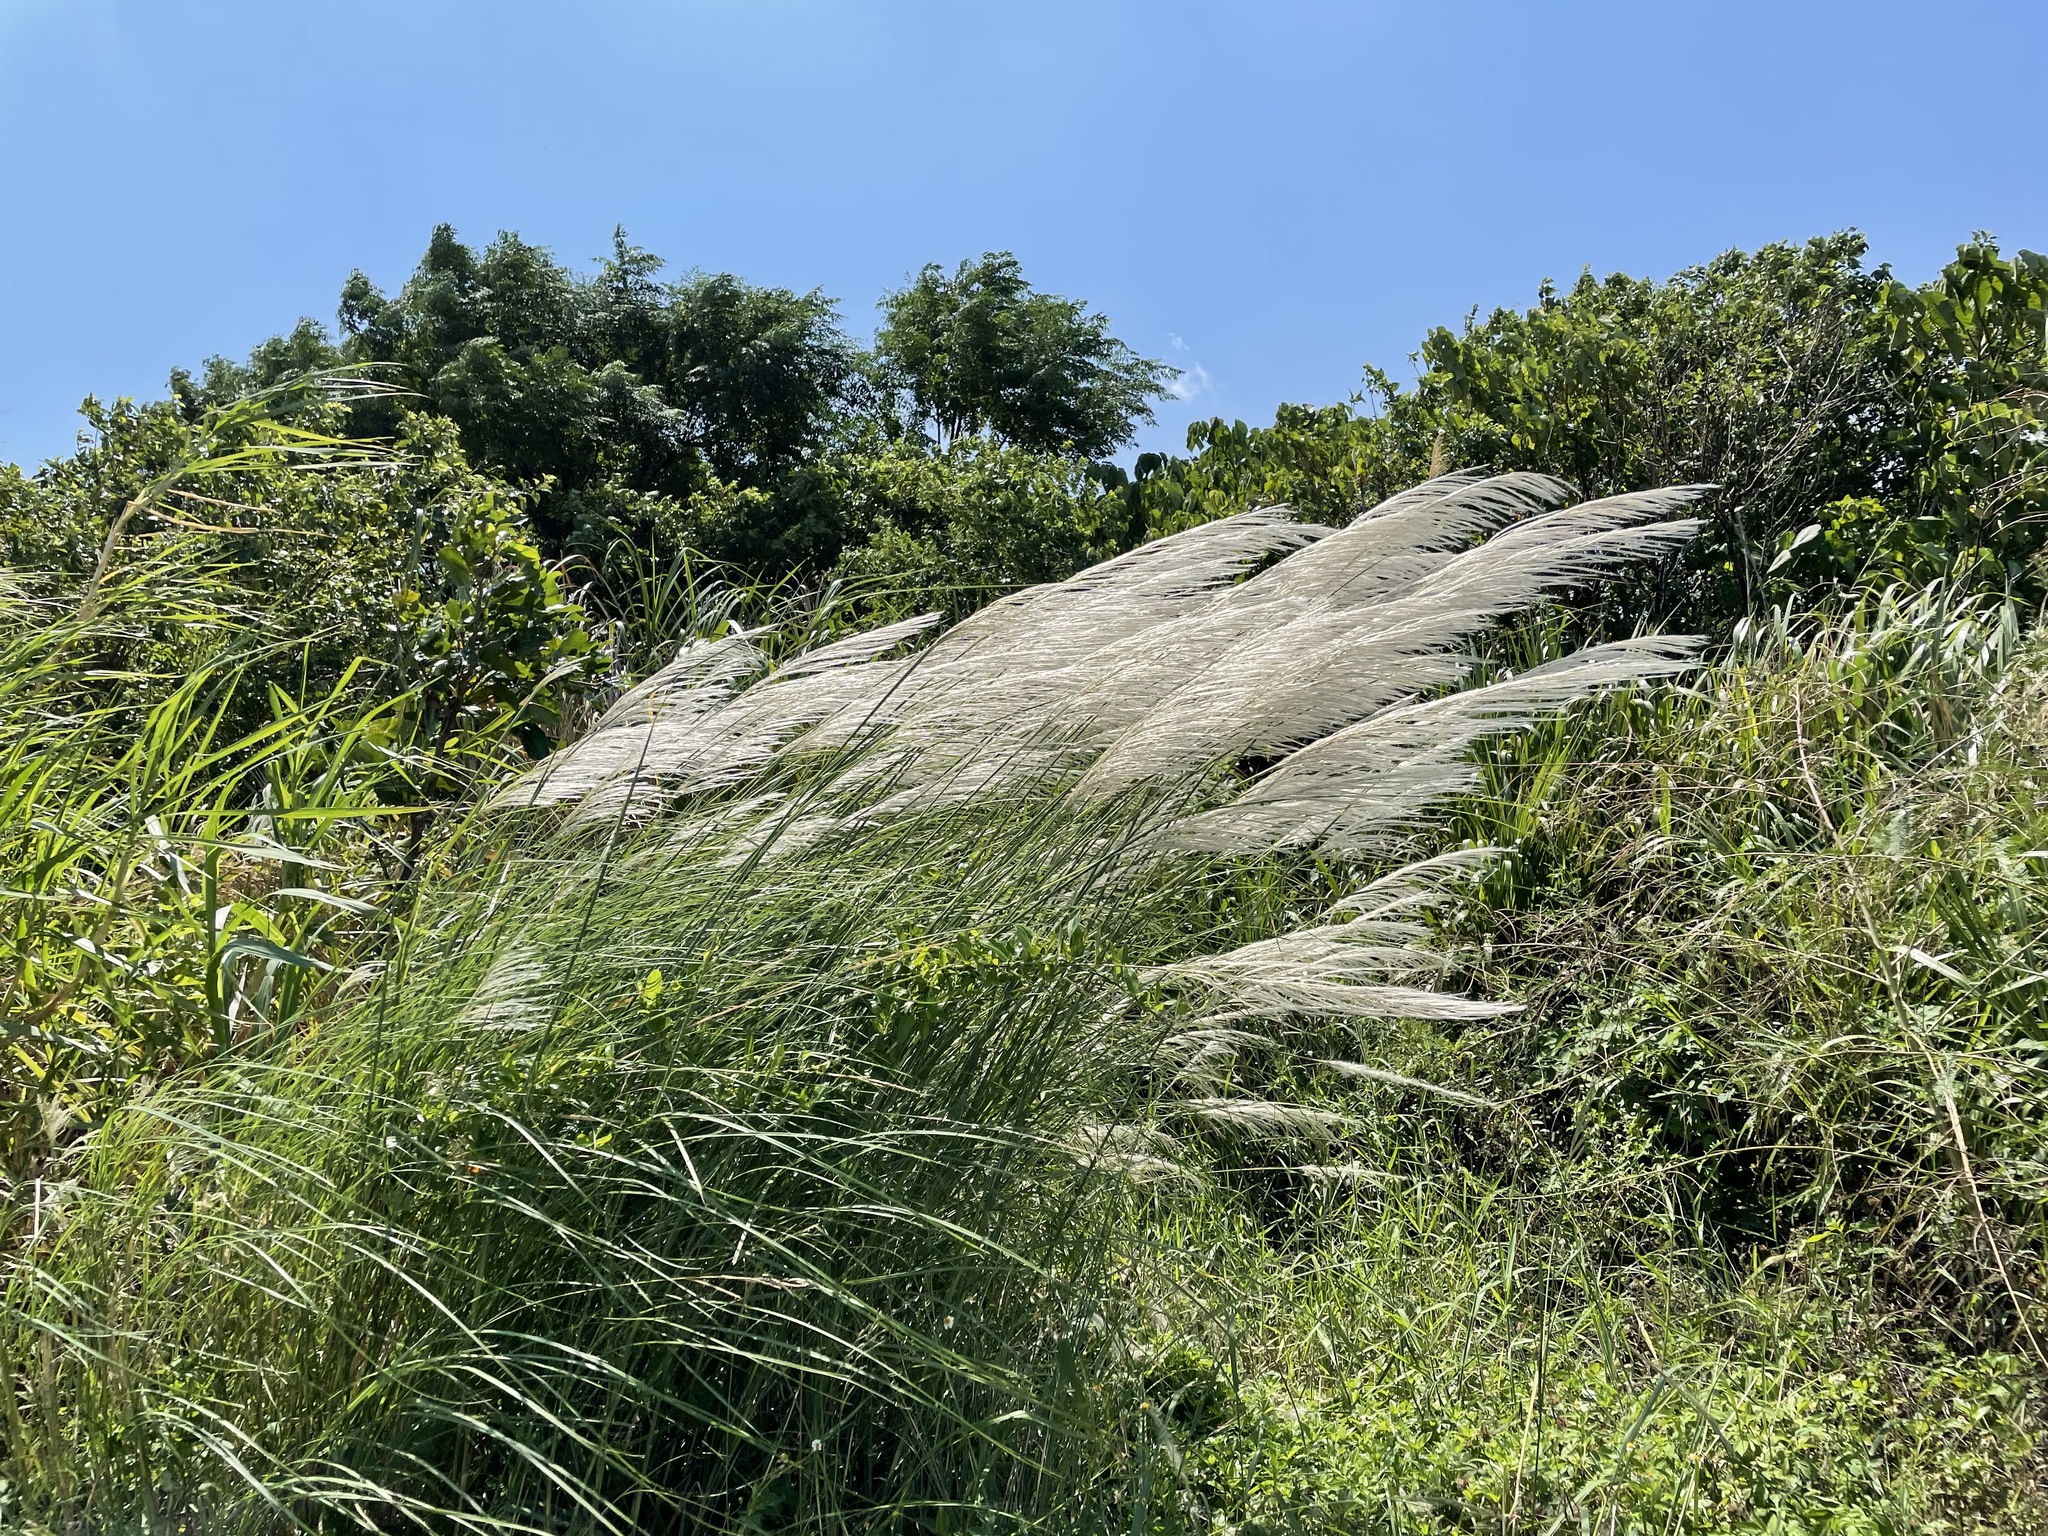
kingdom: Plantae
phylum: Tracheophyta
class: Liliopsida
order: Poales
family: Poaceae
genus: Saccharum
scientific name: Saccharum spontaneum
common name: Wild sugarcane
